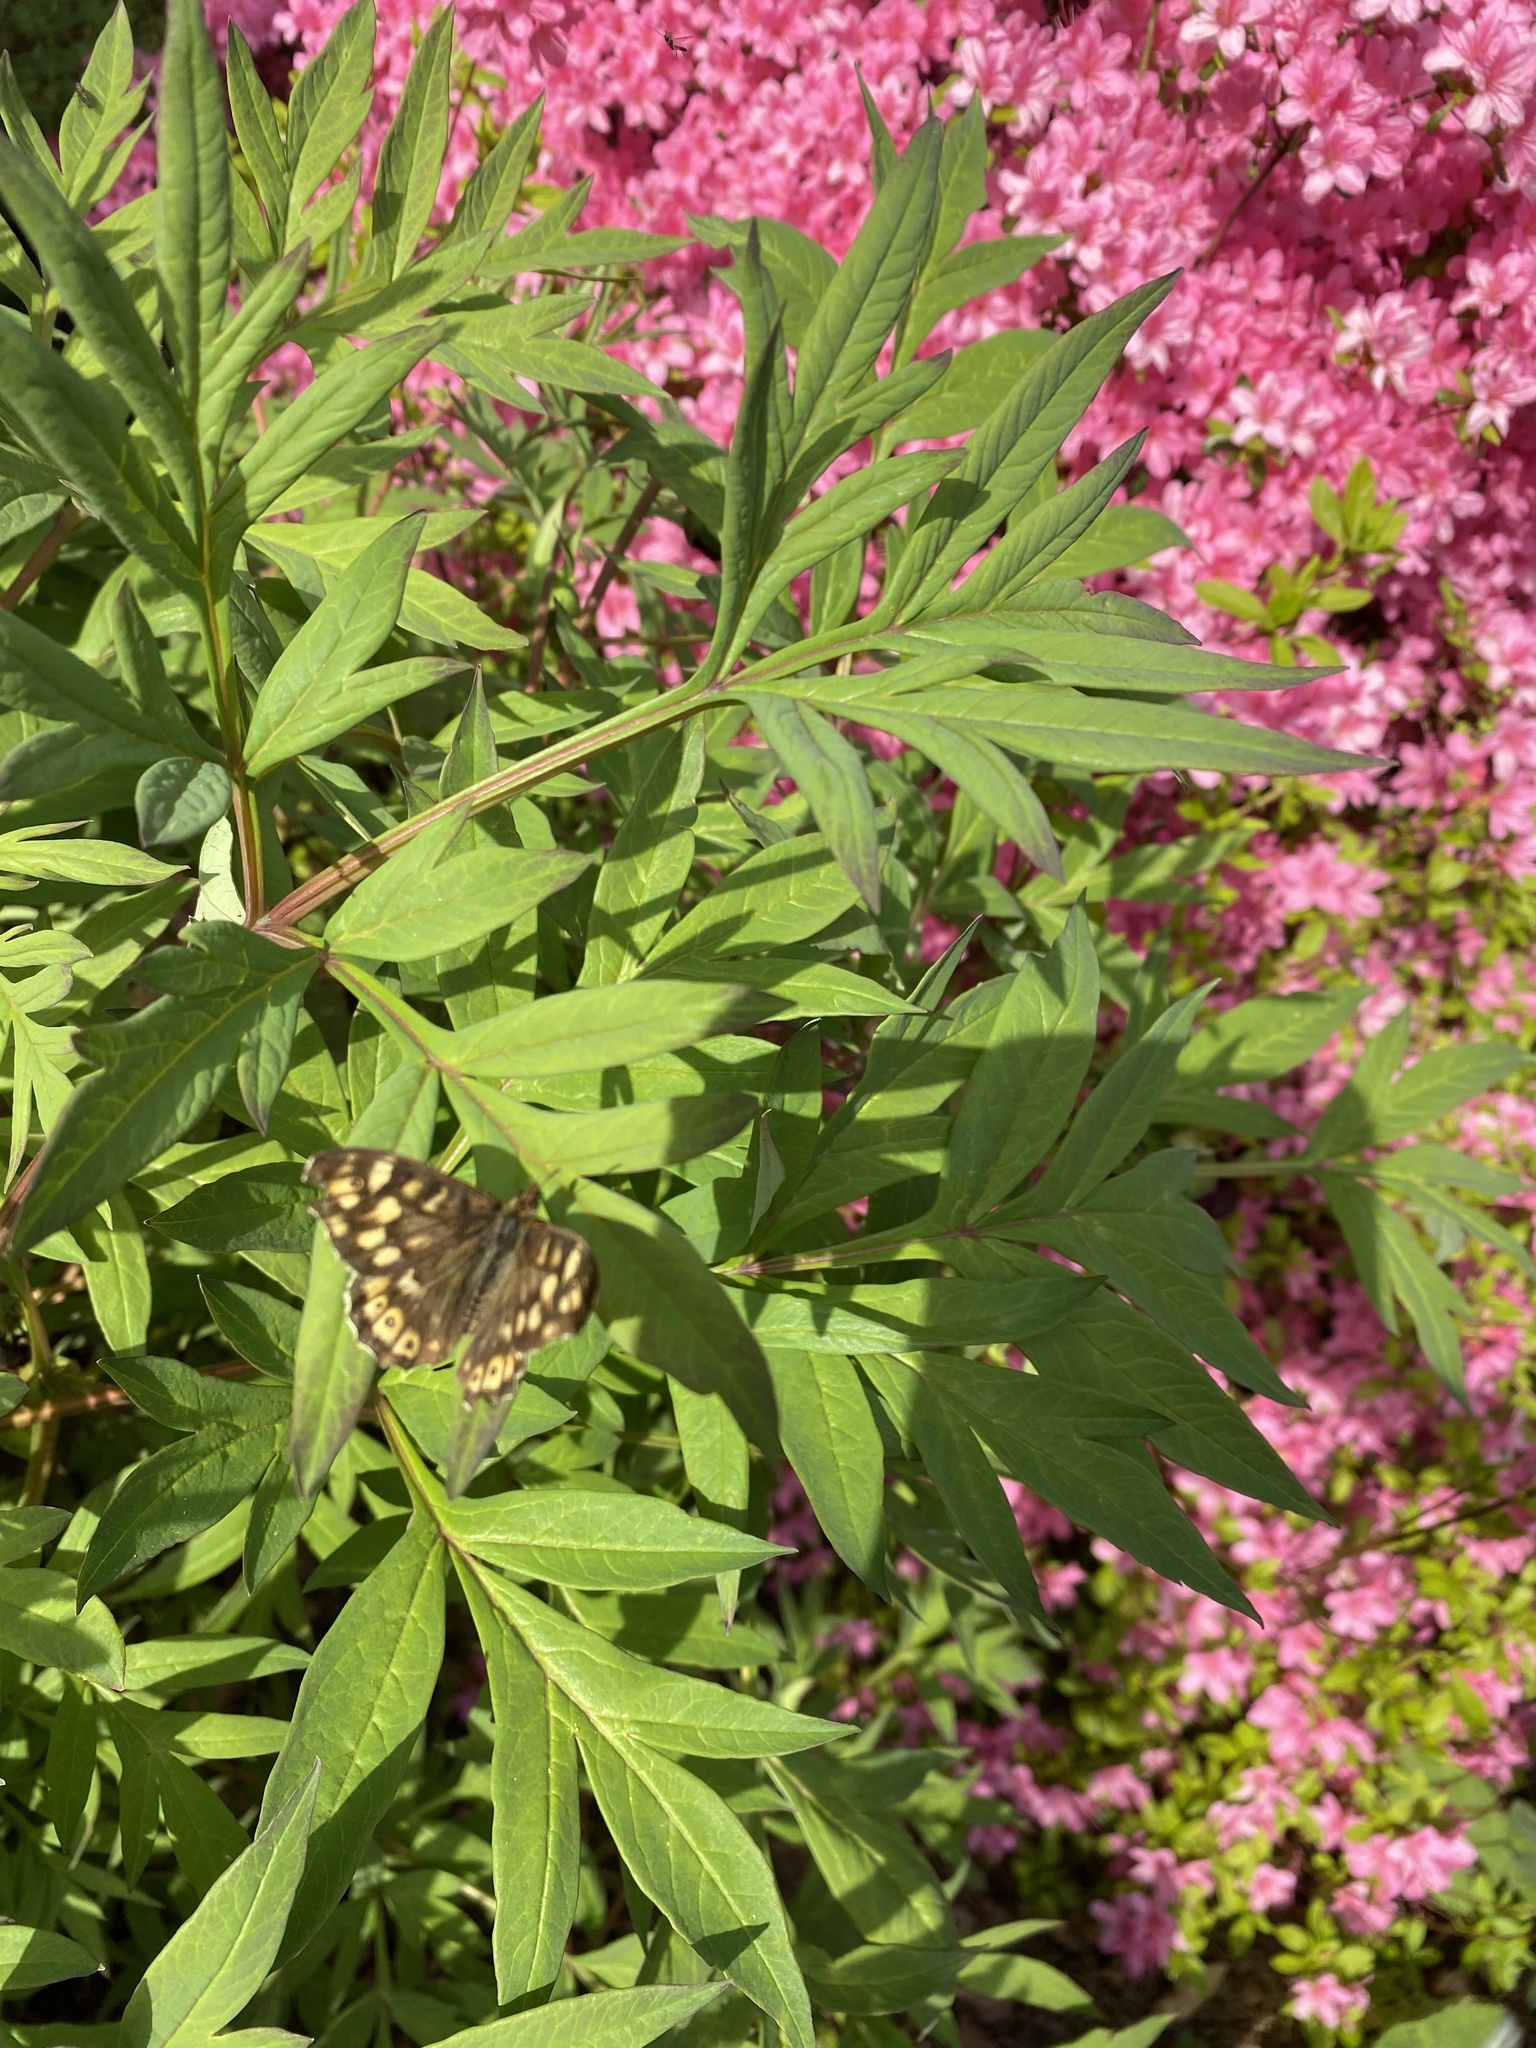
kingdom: Animalia
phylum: Arthropoda
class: Insecta
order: Lepidoptera
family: Nymphalidae
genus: Pararge
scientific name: Pararge aegeria
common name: Speckled wood
